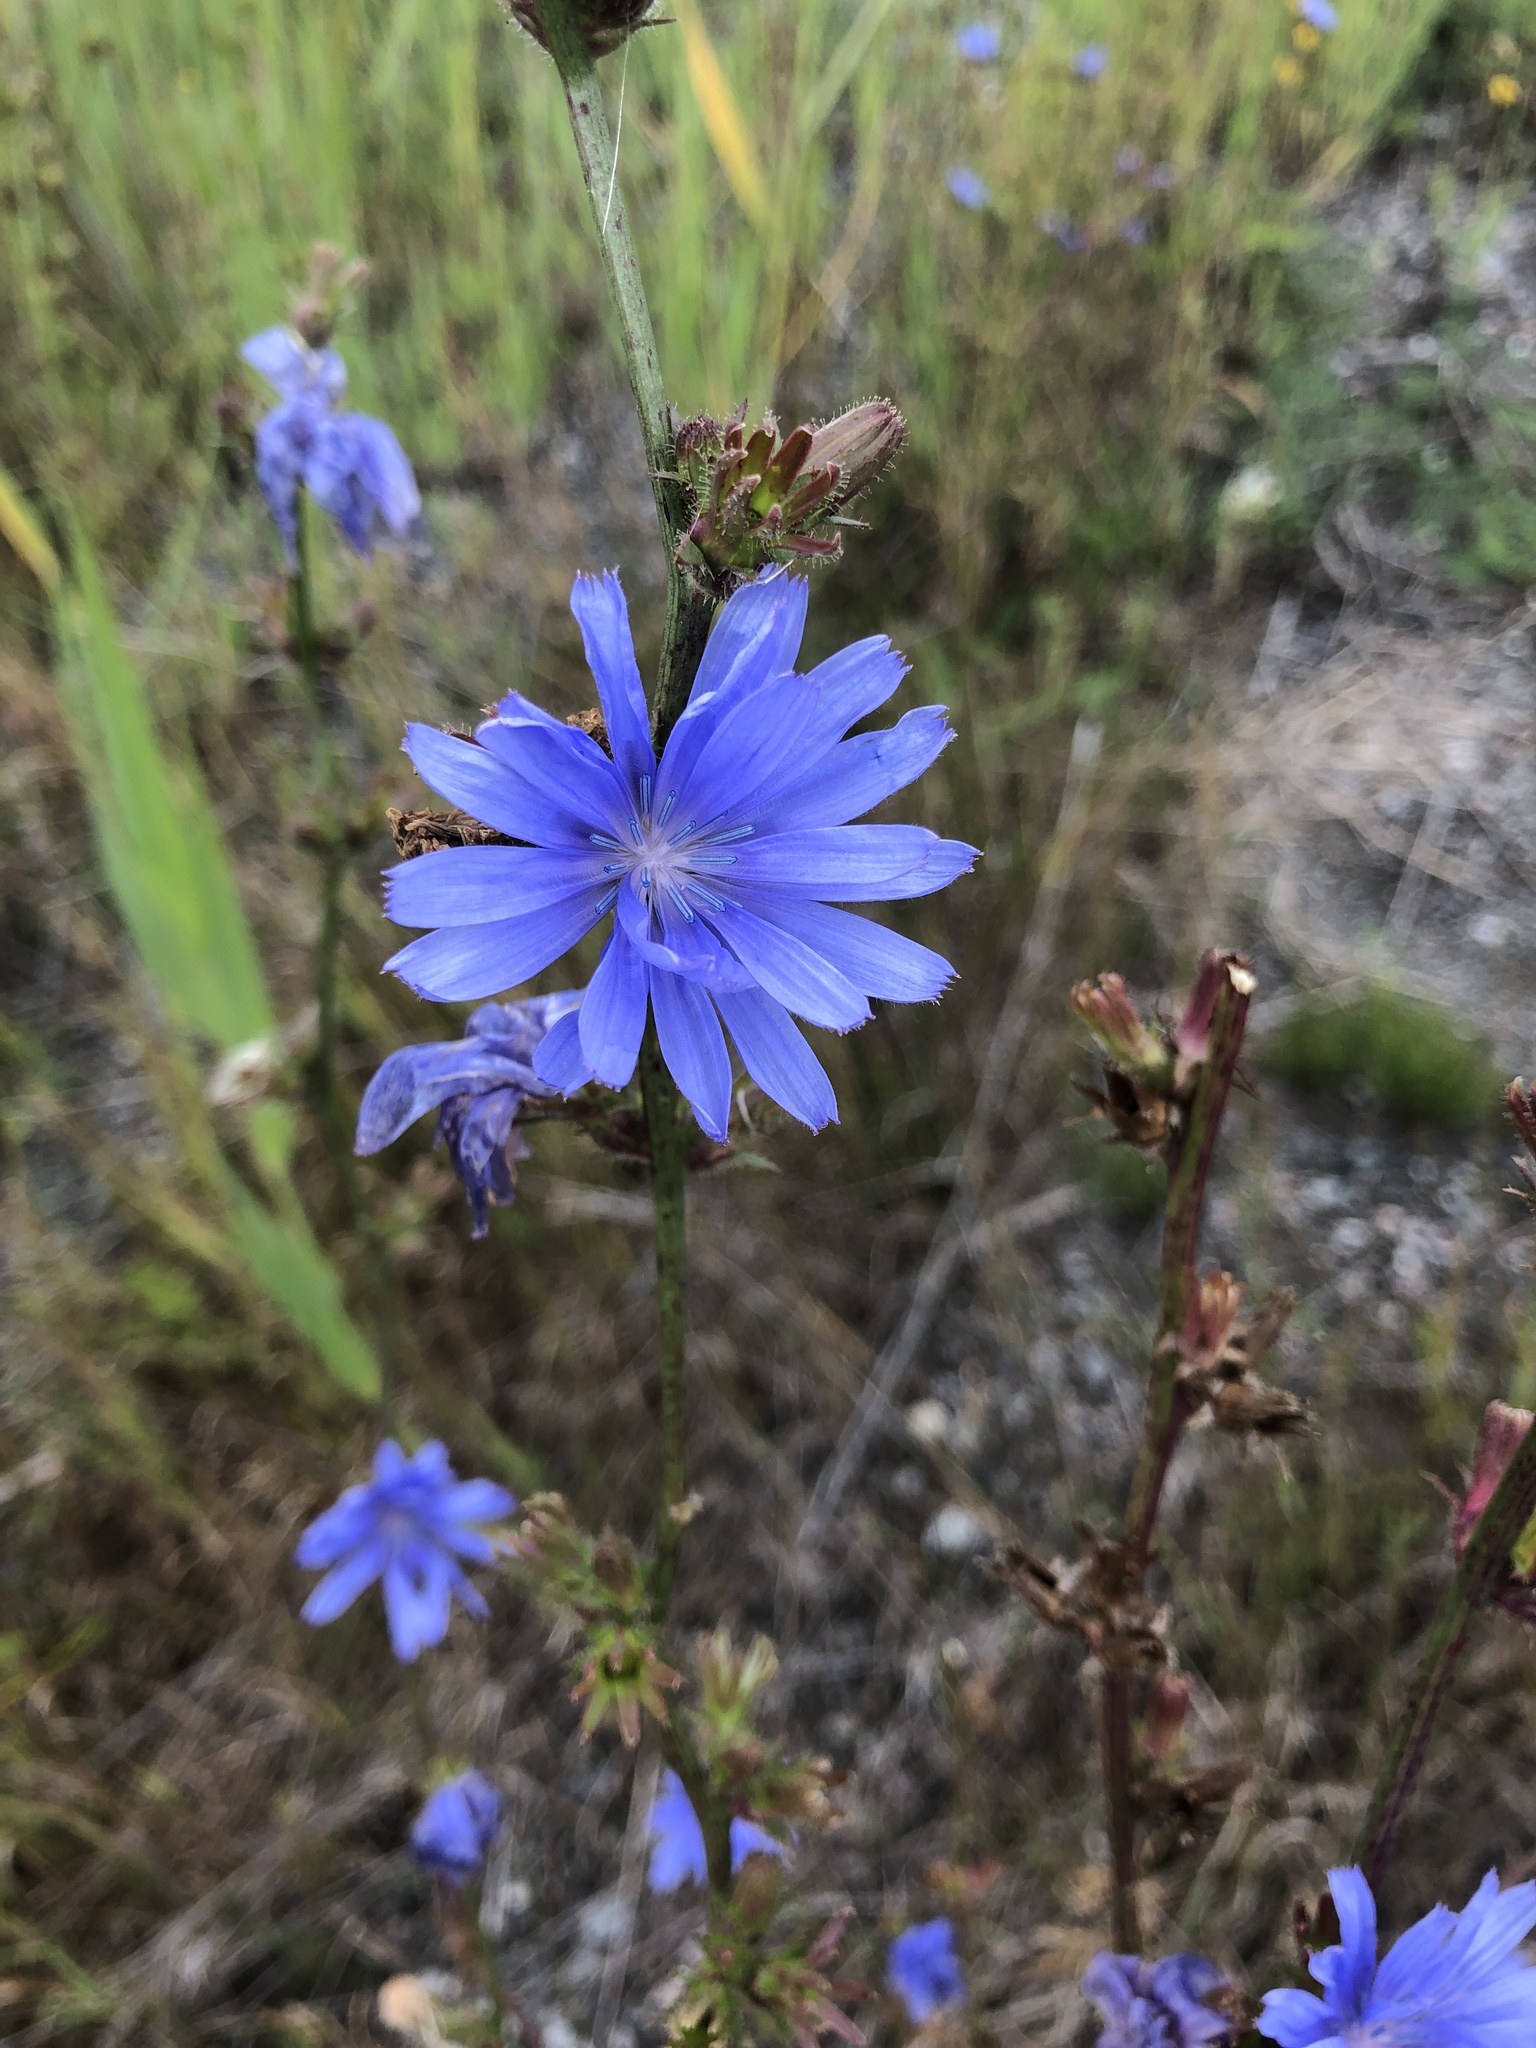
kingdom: Plantae
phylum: Tracheophyta
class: Magnoliopsida
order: Asterales
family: Asteraceae
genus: Cichorium
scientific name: Cichorium intybus
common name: Chicory
